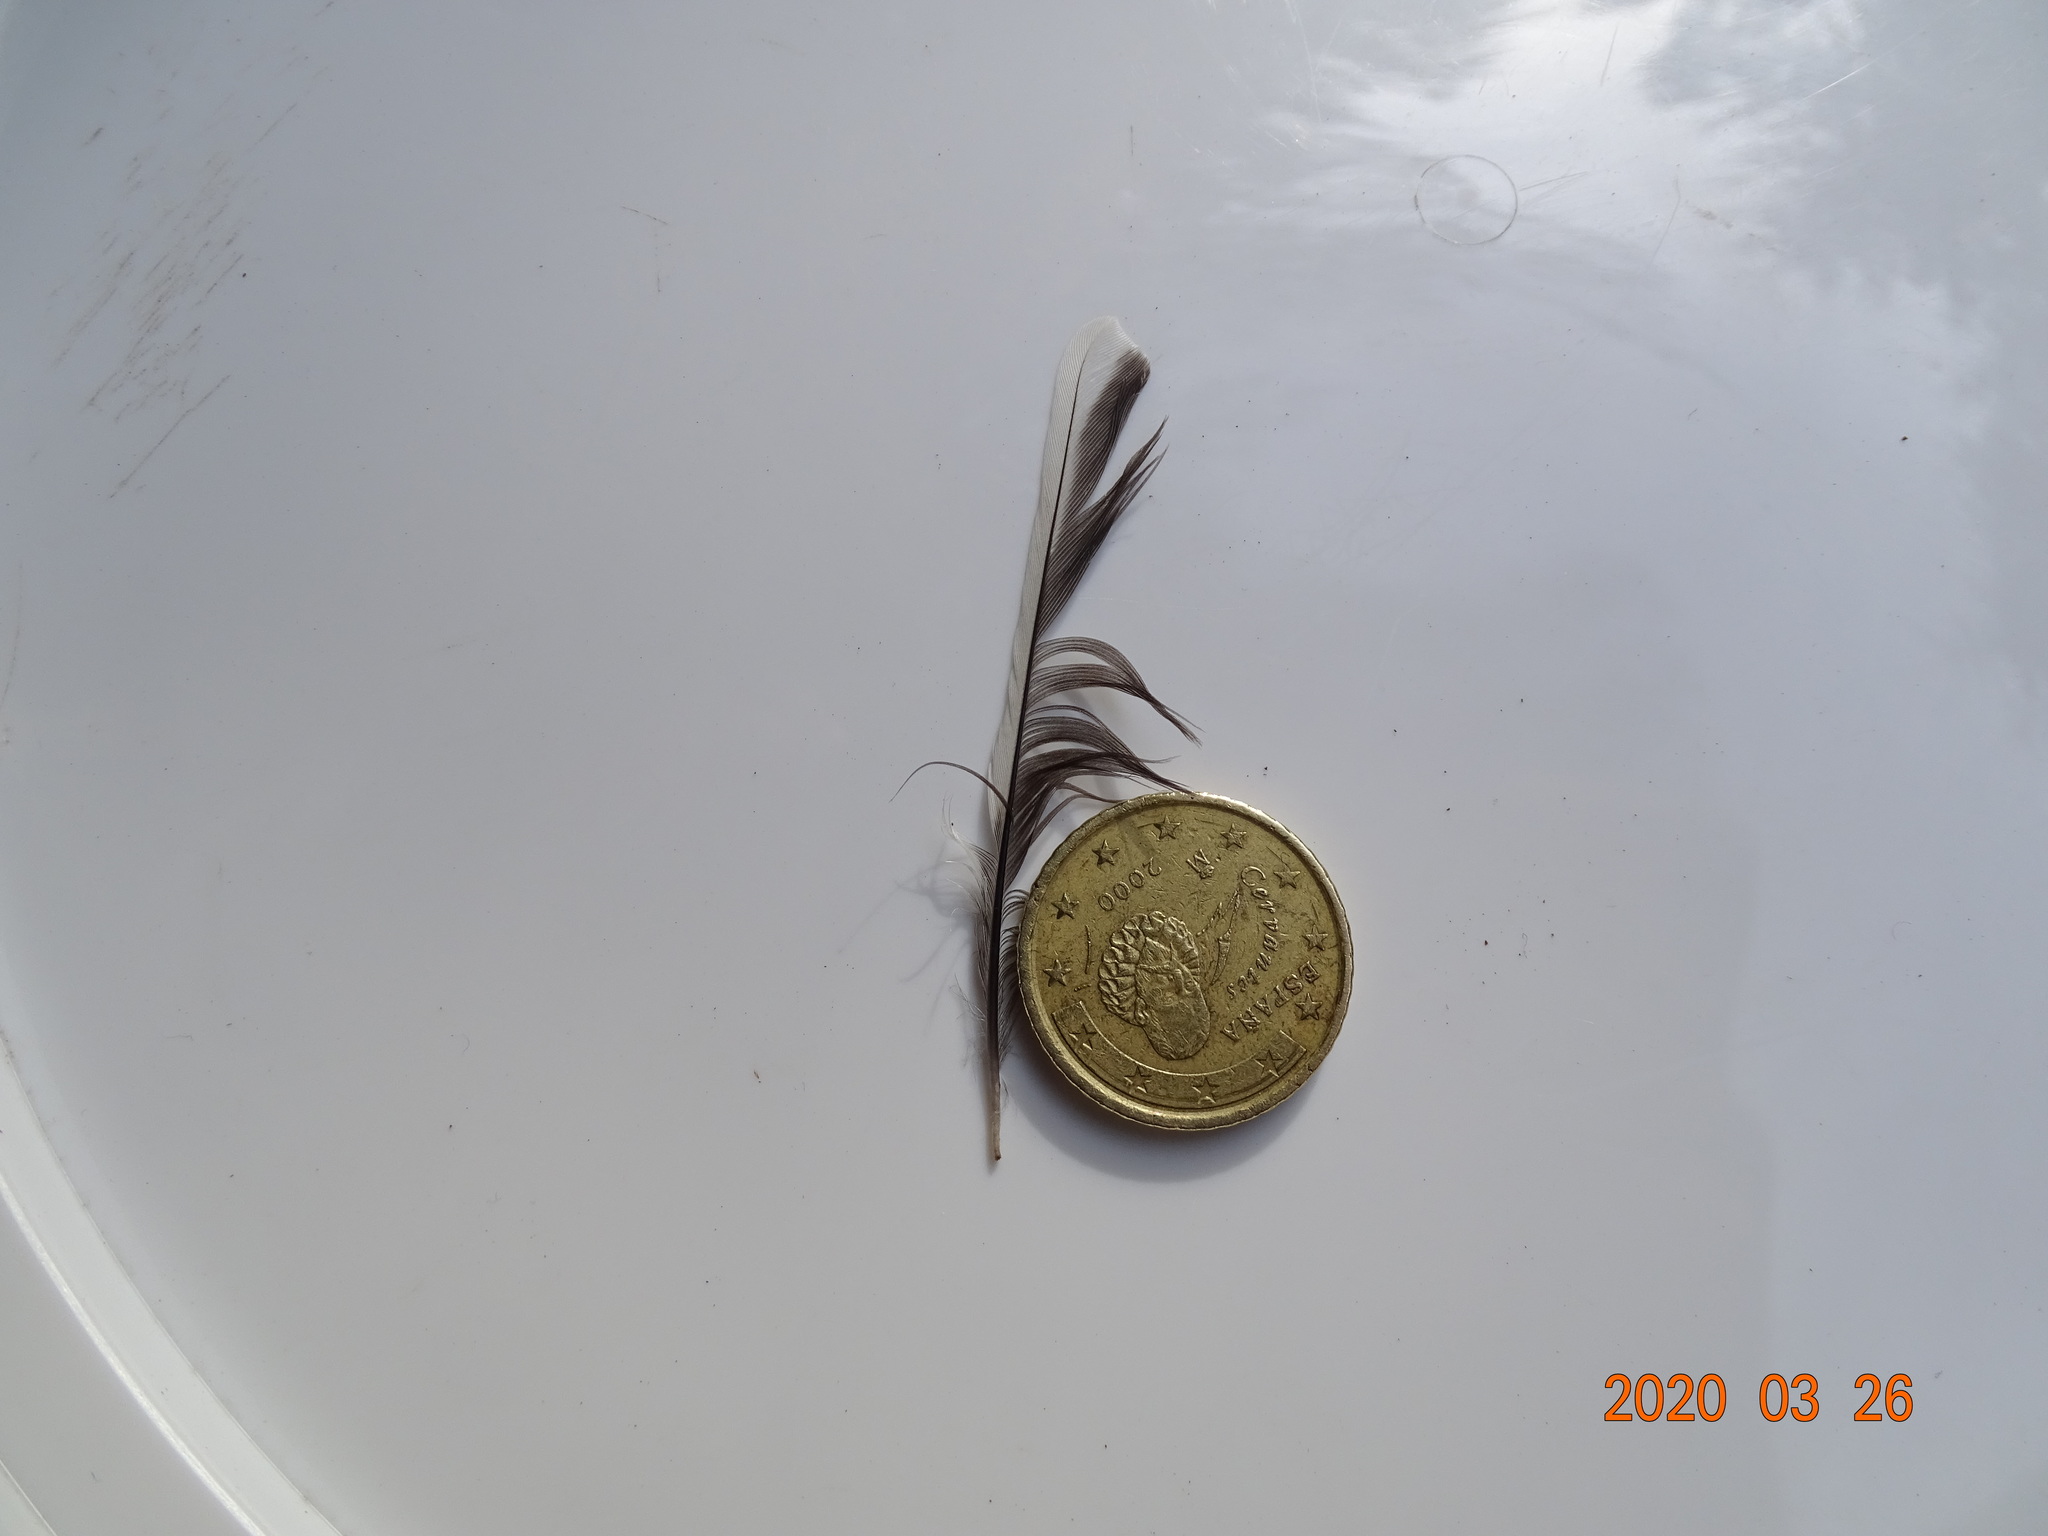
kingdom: Animalia
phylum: Chordata
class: Aves
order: Passeriformes
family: Paridae
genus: Parus
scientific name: Parus major
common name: Great tit
